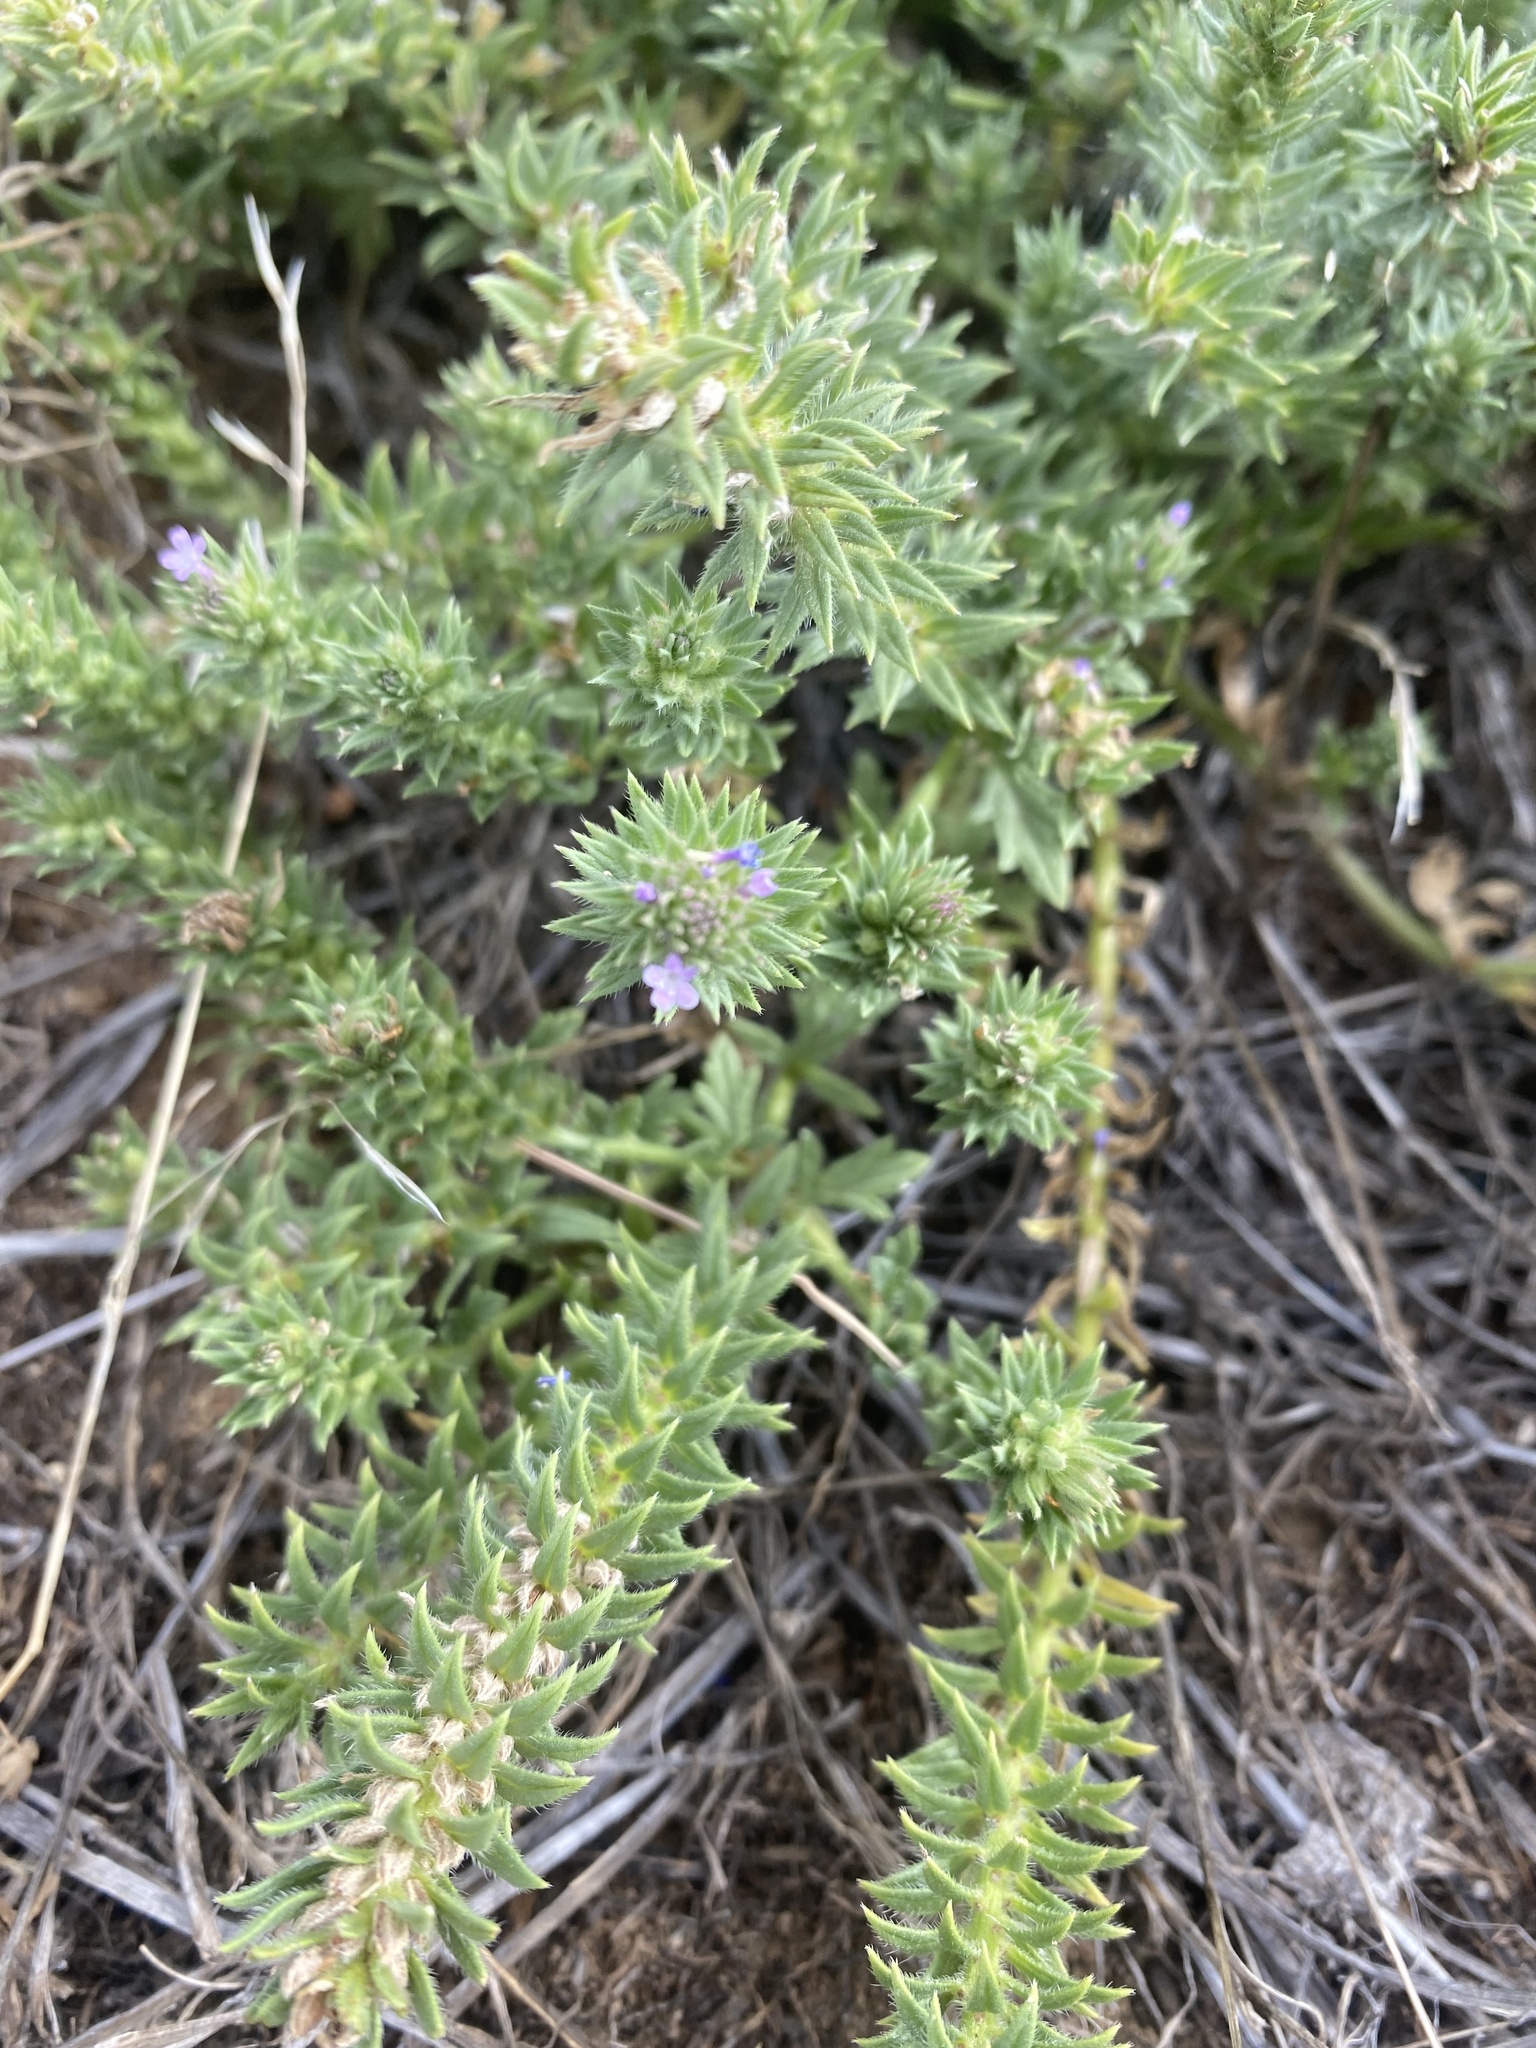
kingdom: Plantae
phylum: Tracheophyta
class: Magnoliopsida
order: Lamiales
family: Verbenaceae
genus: Verbena
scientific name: Verbena bracteata
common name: Bracted vervain
